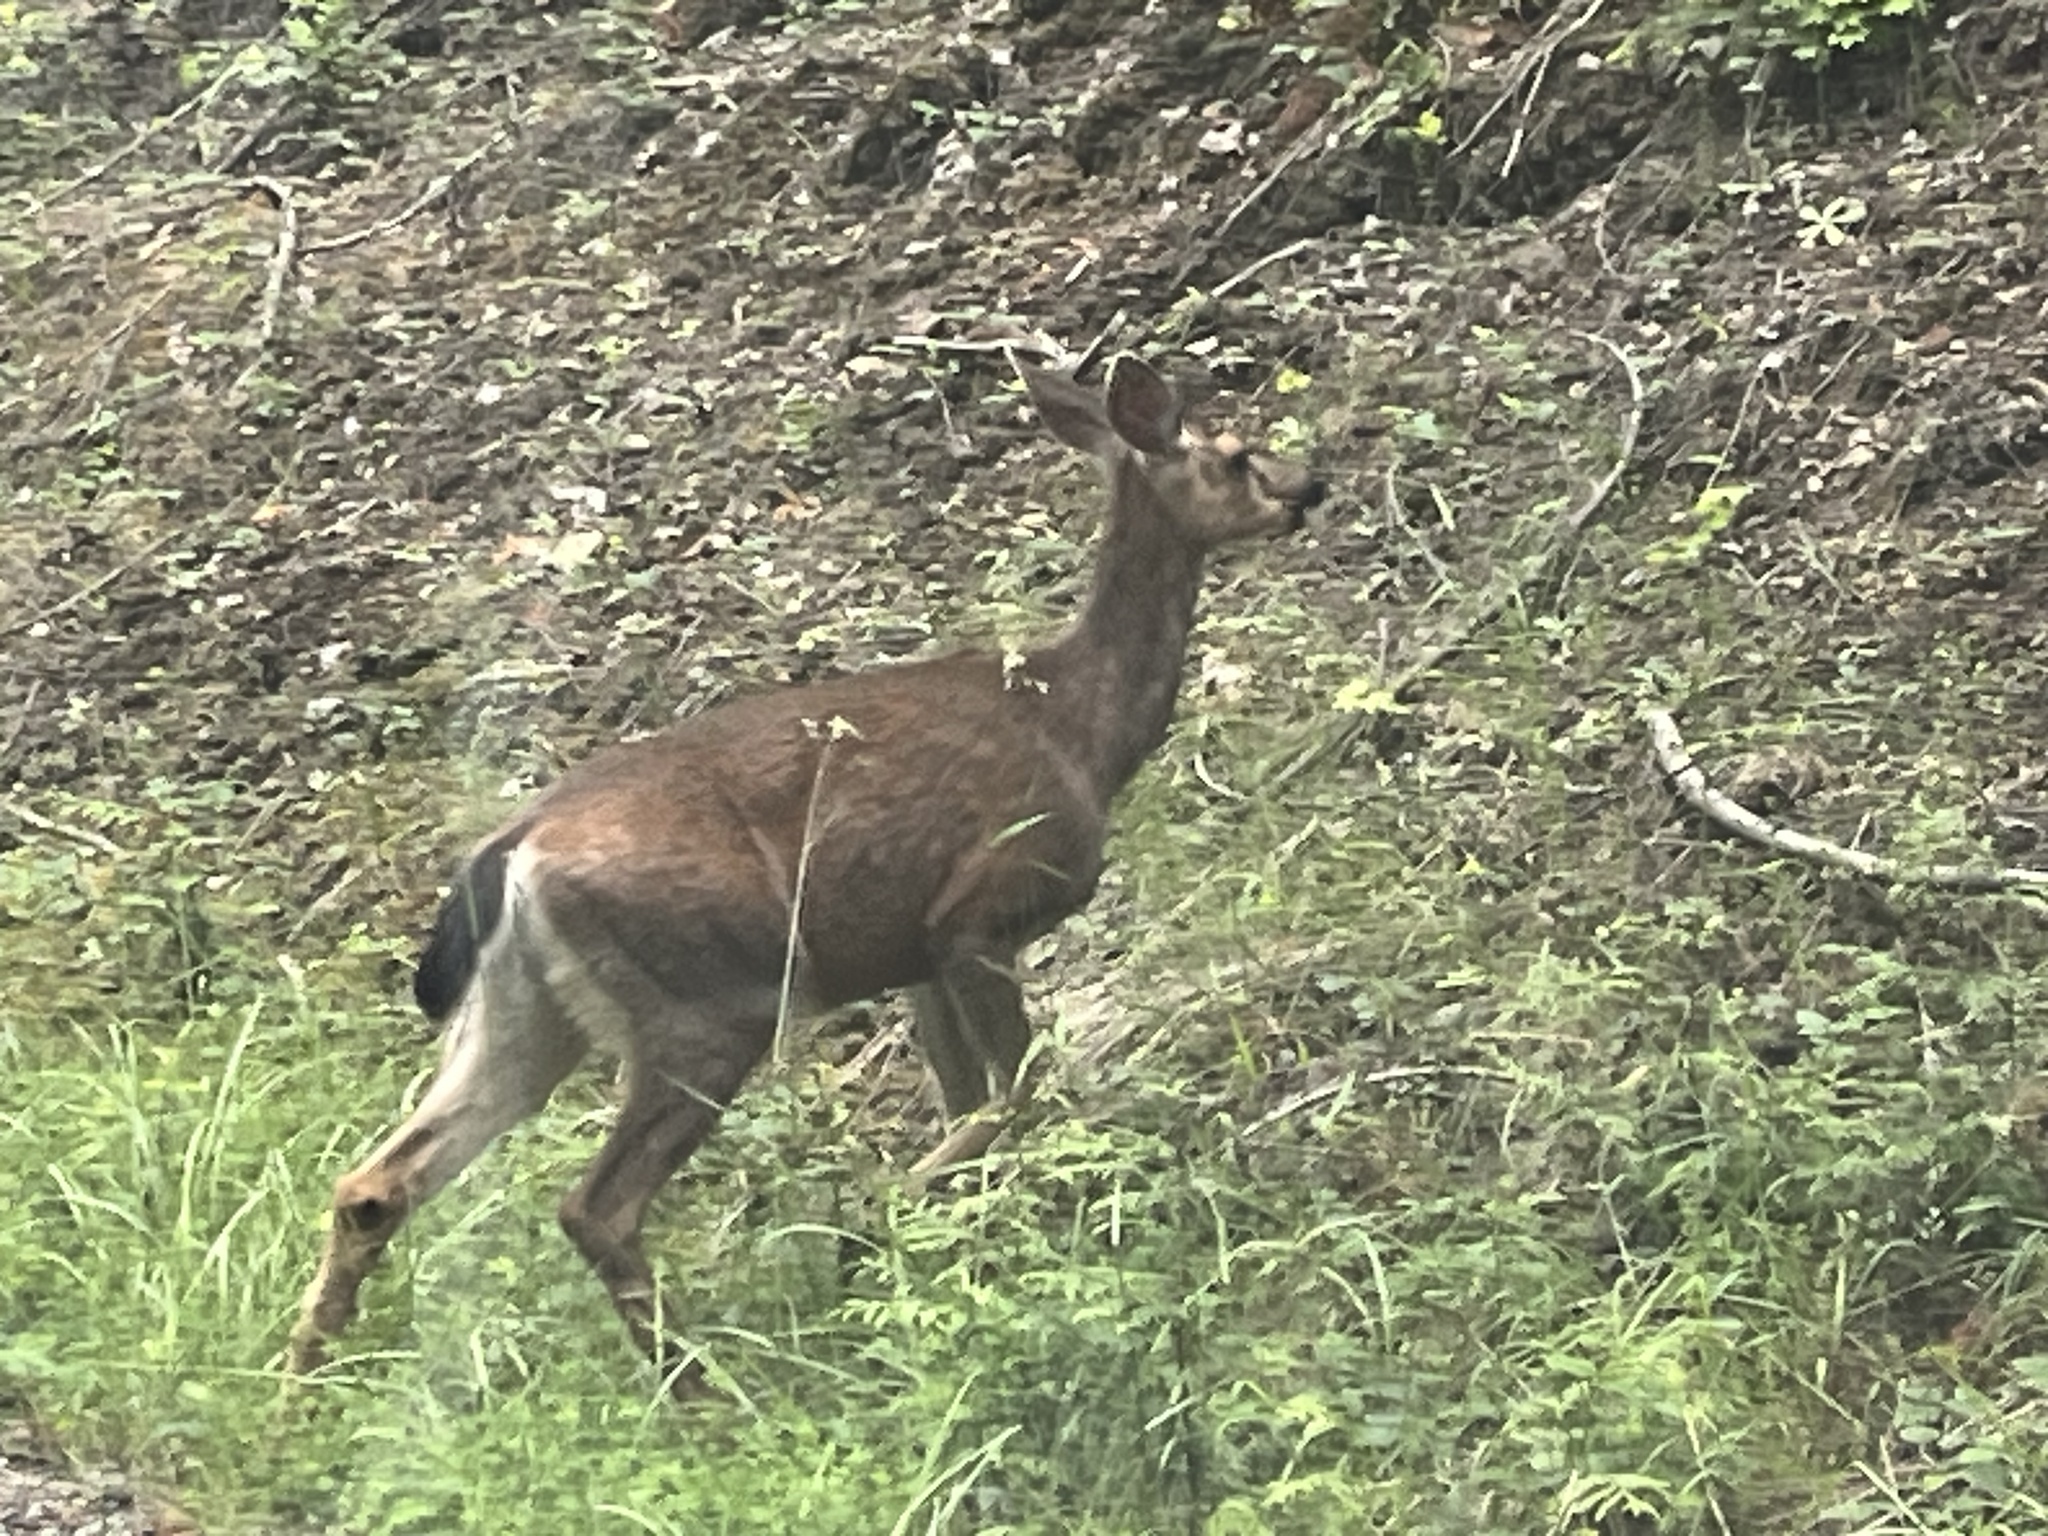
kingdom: Animalia
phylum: Chordata
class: Mammalia
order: Artiodactyla
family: Cervidae
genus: Odocoileus
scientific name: Odocoileus hemionus
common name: Mule deer
